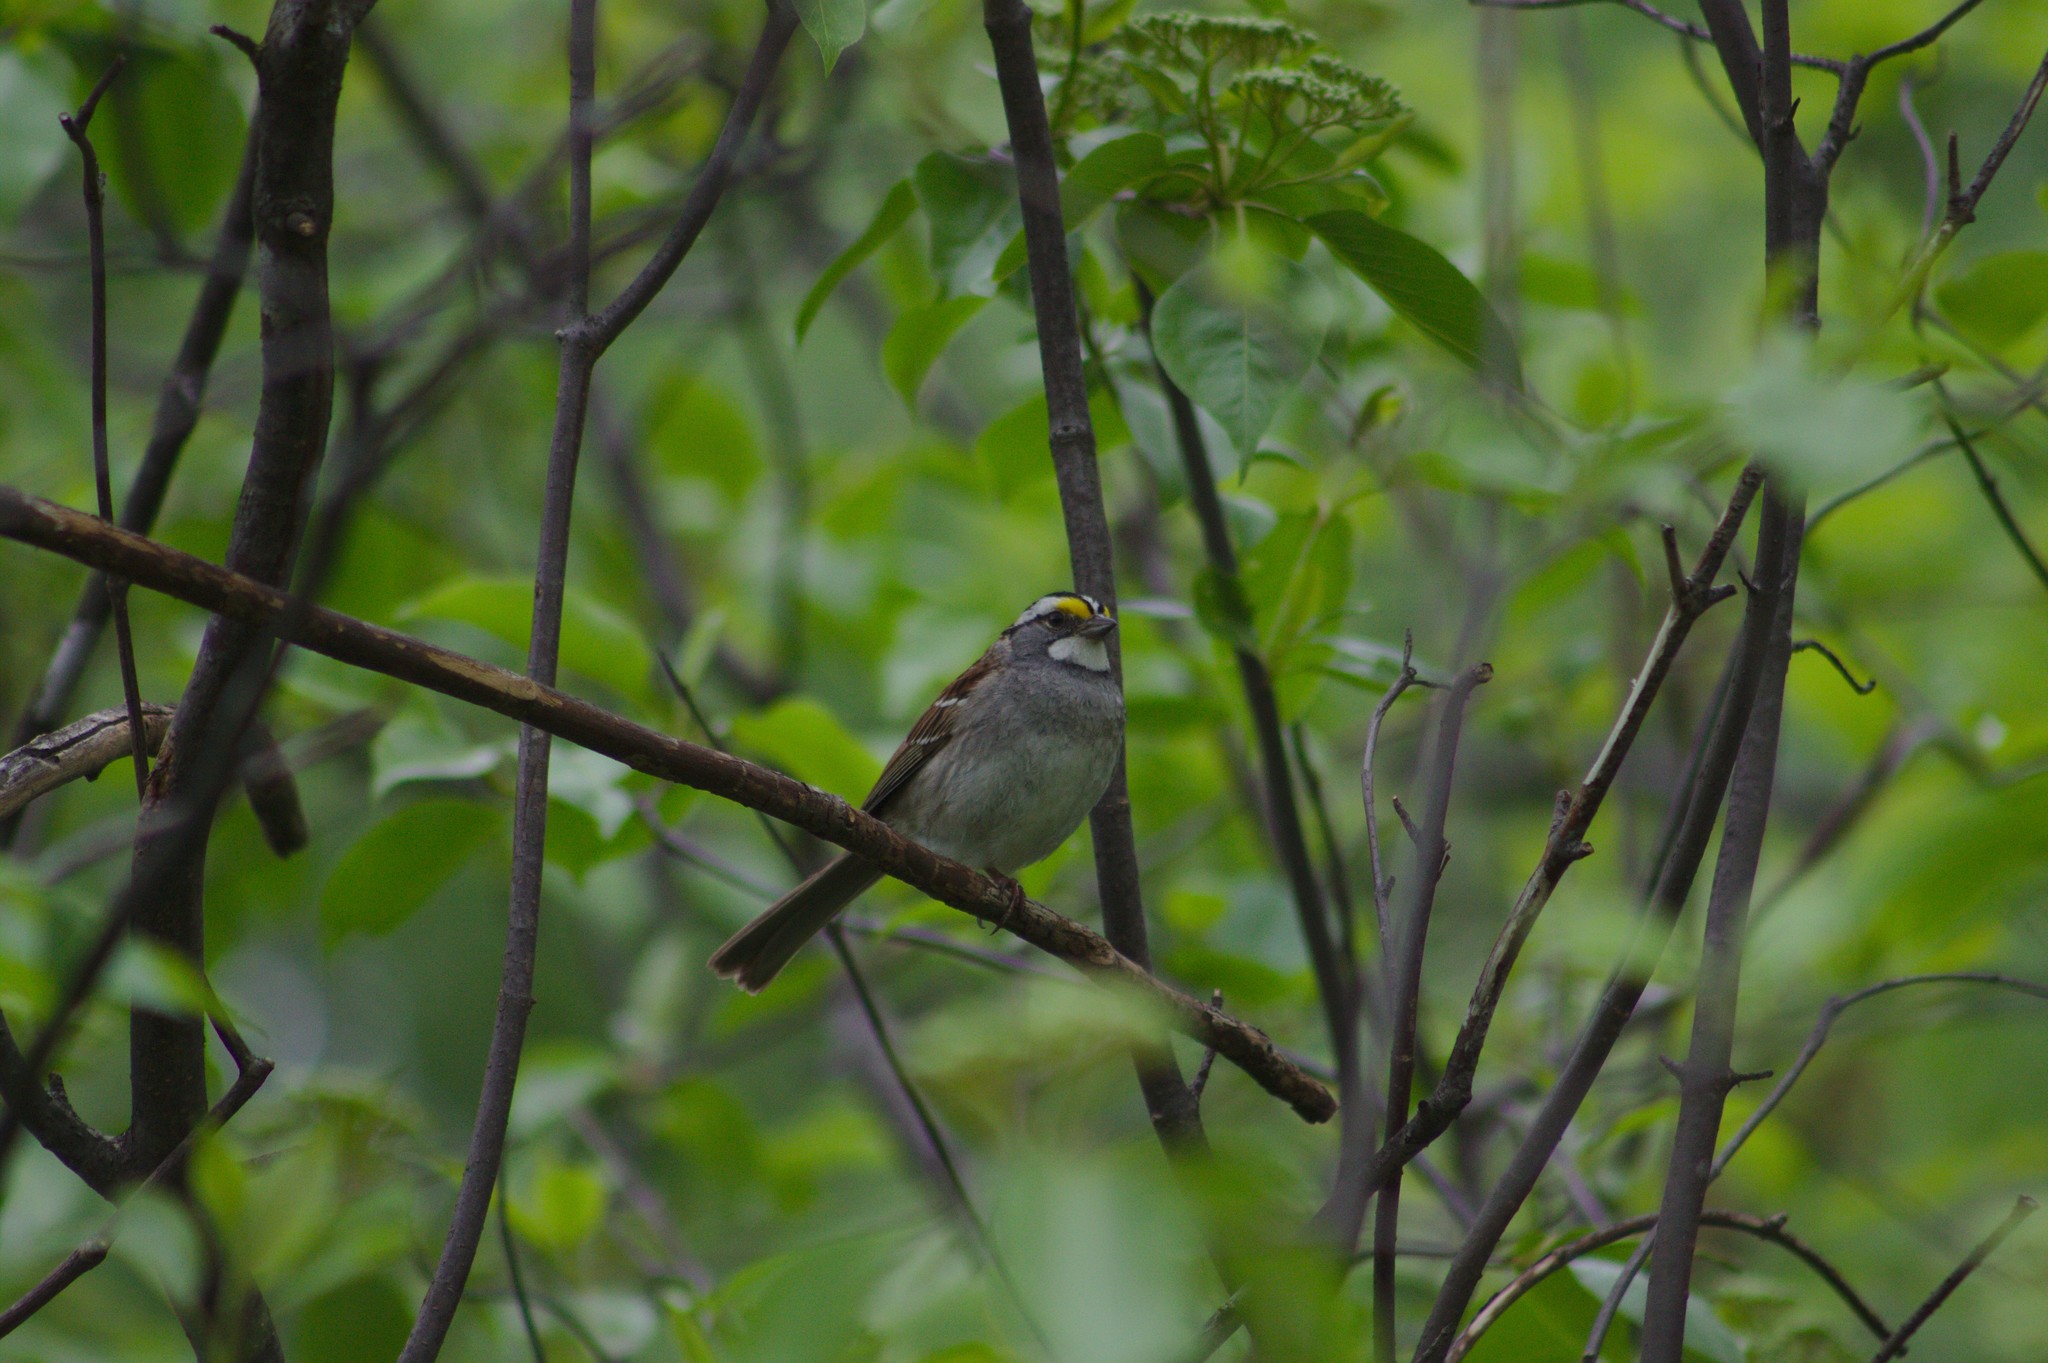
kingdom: Animalia
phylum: Chordata
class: Aves
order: Passeriformes
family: Passerellidae
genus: Zonotrichia
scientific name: Zonotrichia albicollis
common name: White-throated sparrow
